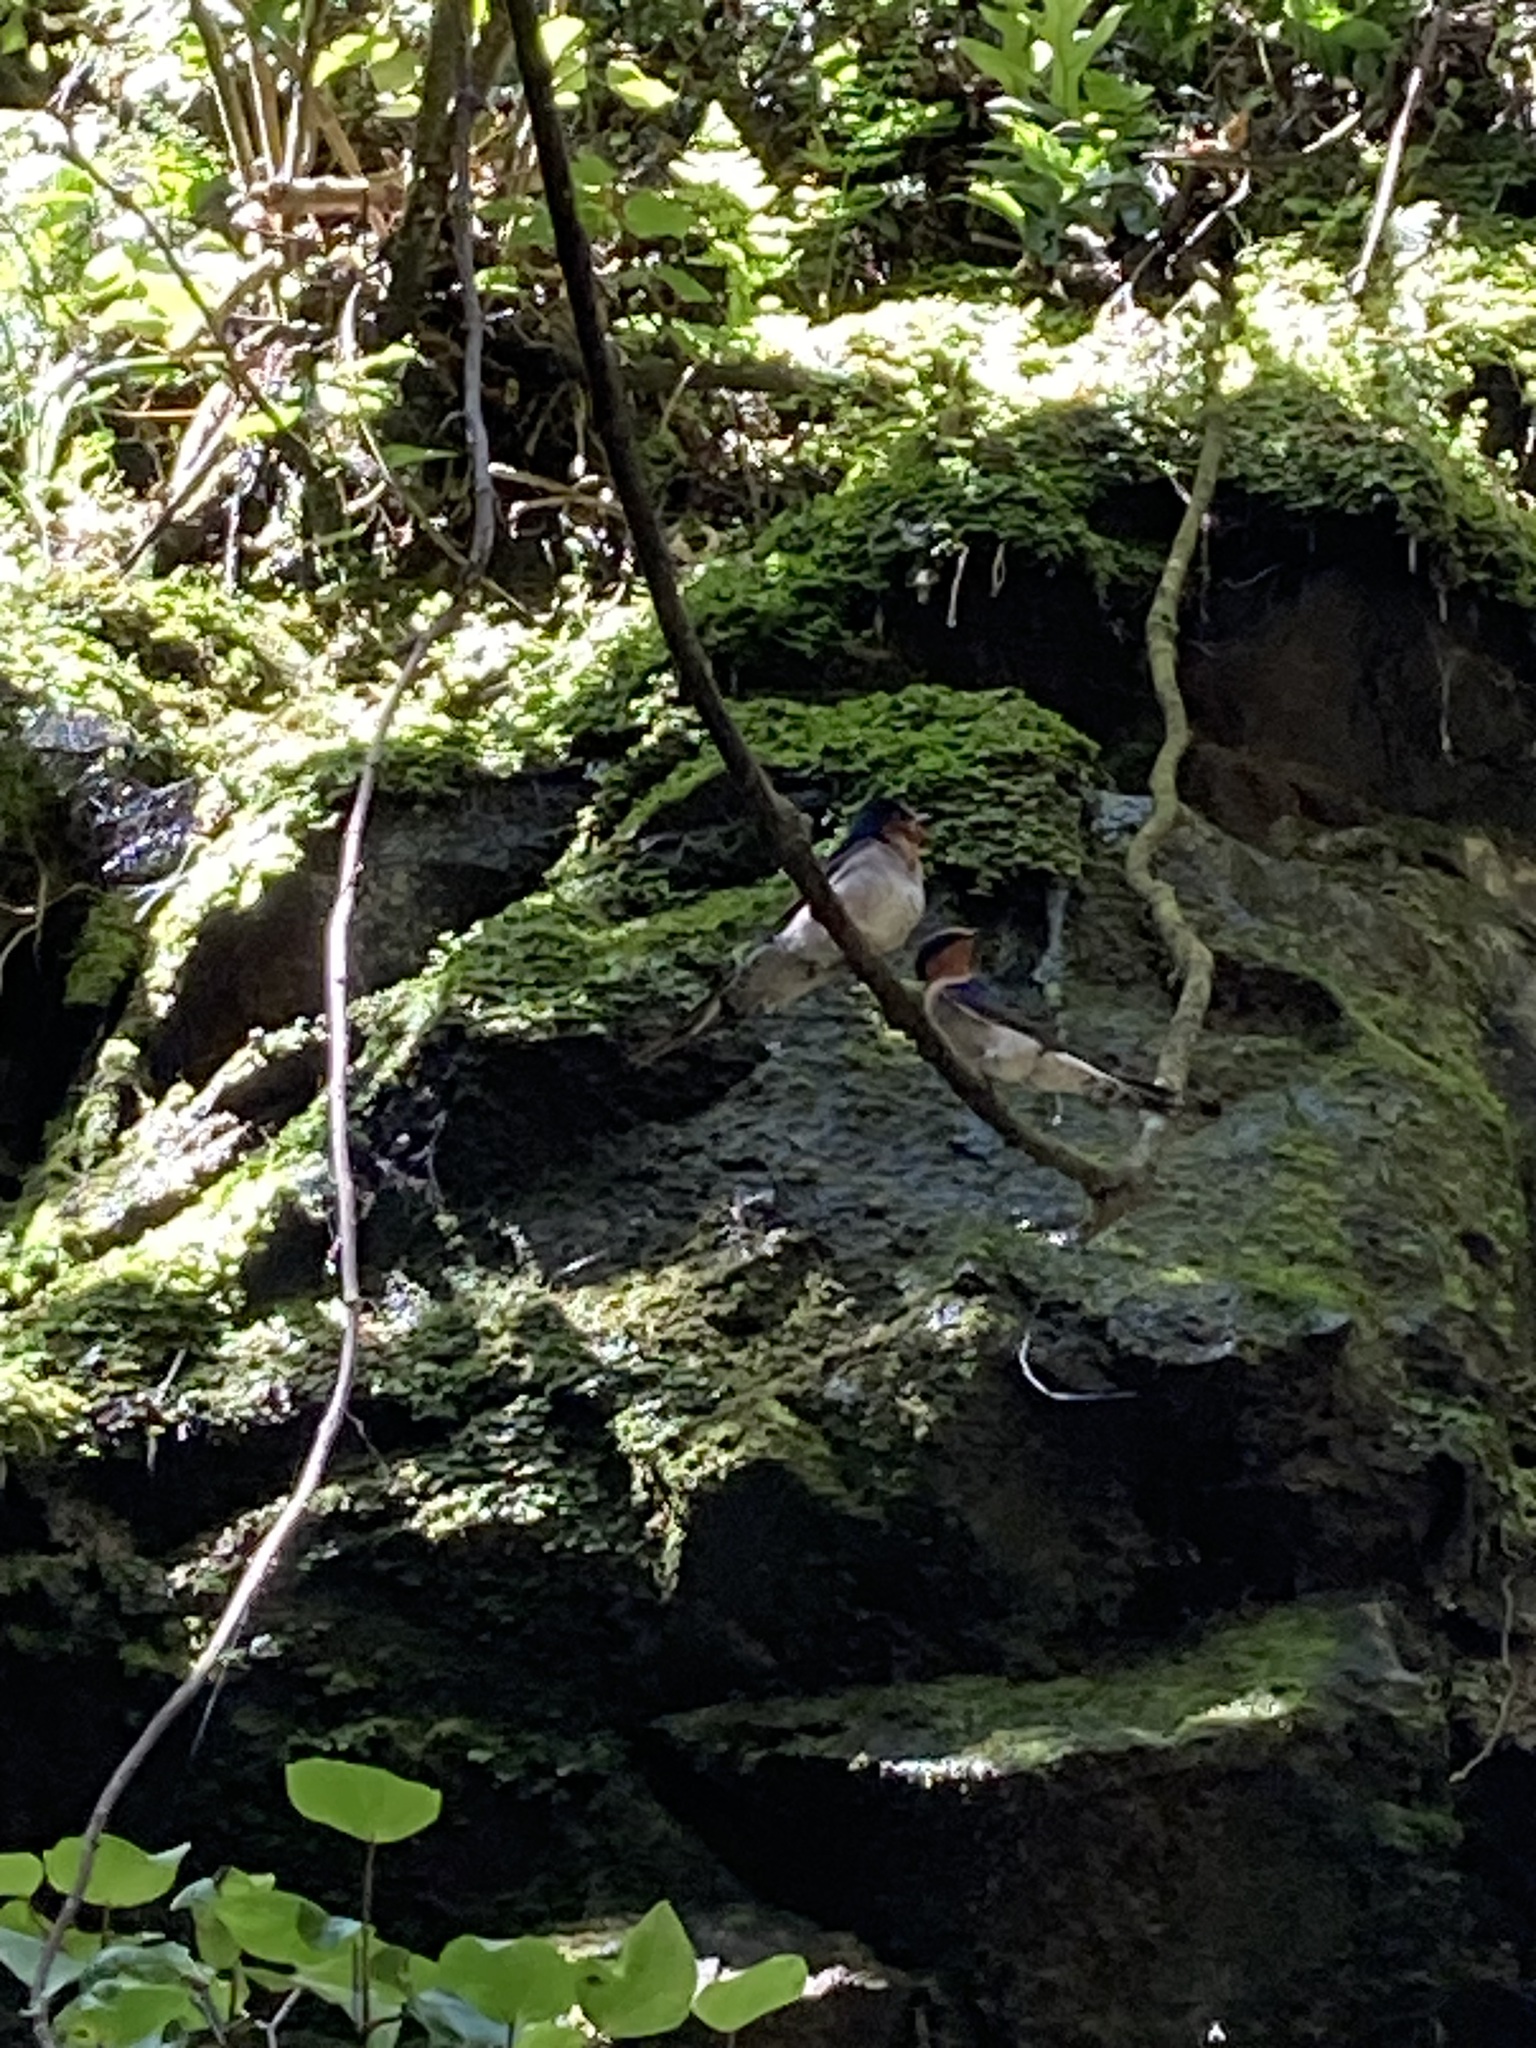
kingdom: Animalia
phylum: Chordata
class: Aves
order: Passeriformes
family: Hirundinidae
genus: Hirundo
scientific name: Hirundo neoxena
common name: Welcome swallow
